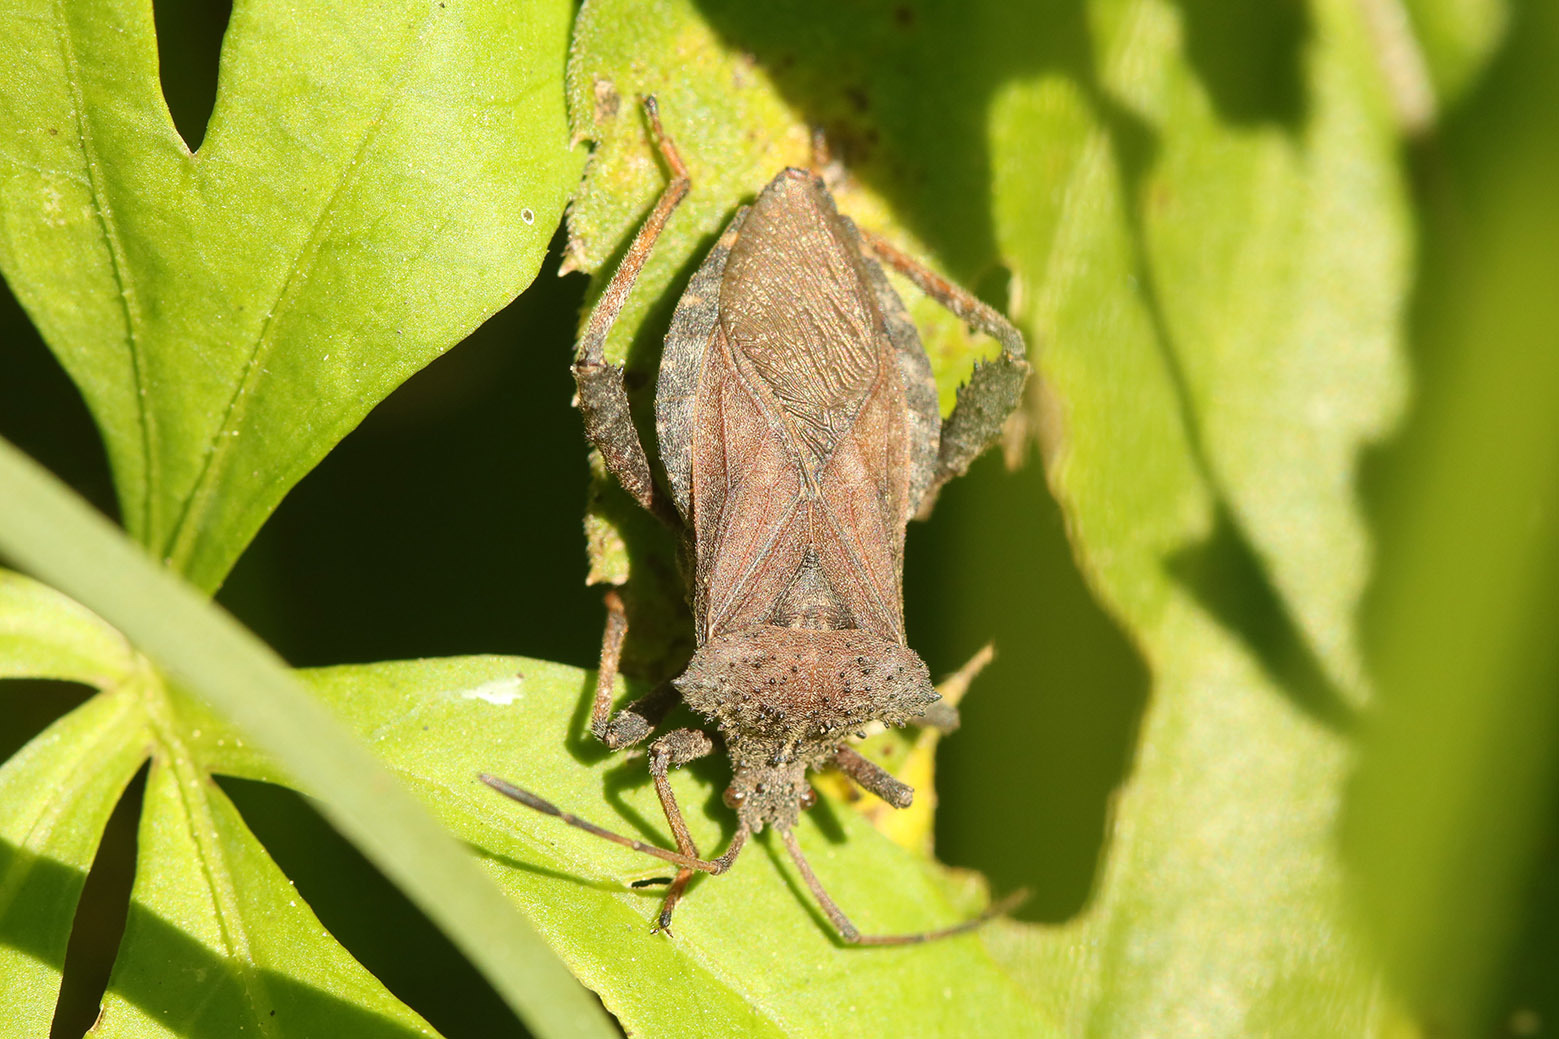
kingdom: Animalia
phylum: Arthropoda
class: Insecta
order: Hemiptera
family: Coreidae
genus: Camptischium
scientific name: Camptischium clavipes
